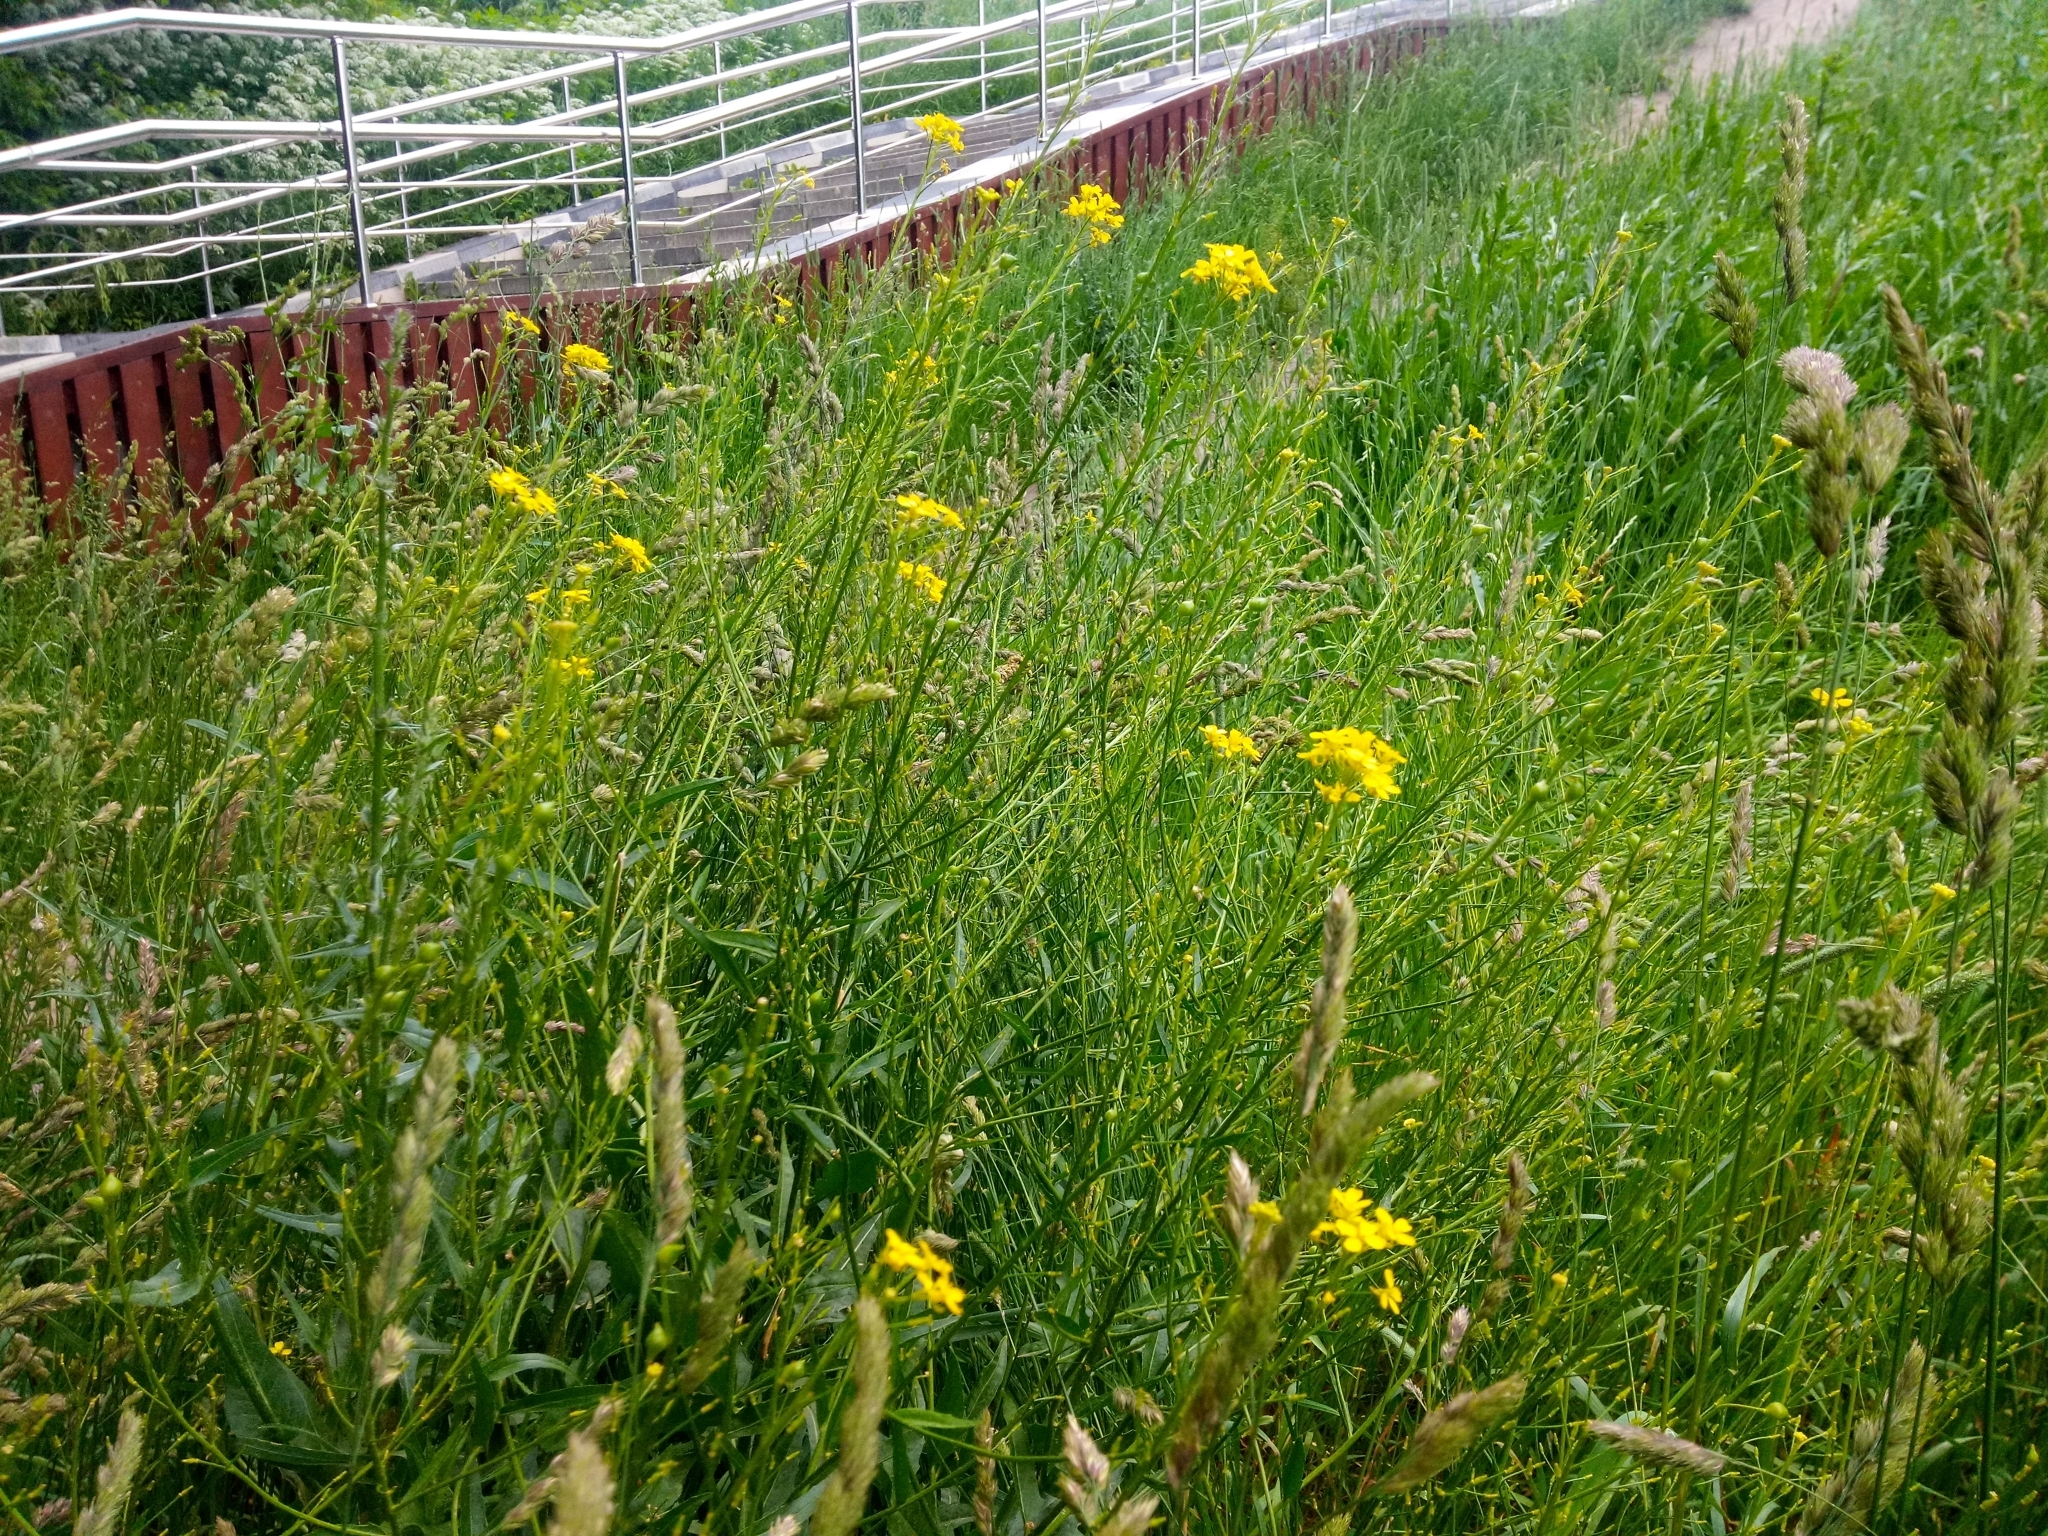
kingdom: Plantae
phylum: Tracheophyta
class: Magnoliopsida
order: Brassicales
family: Brassicaceae
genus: Bunias
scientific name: Bunias orientalis
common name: Warty-cabbage
